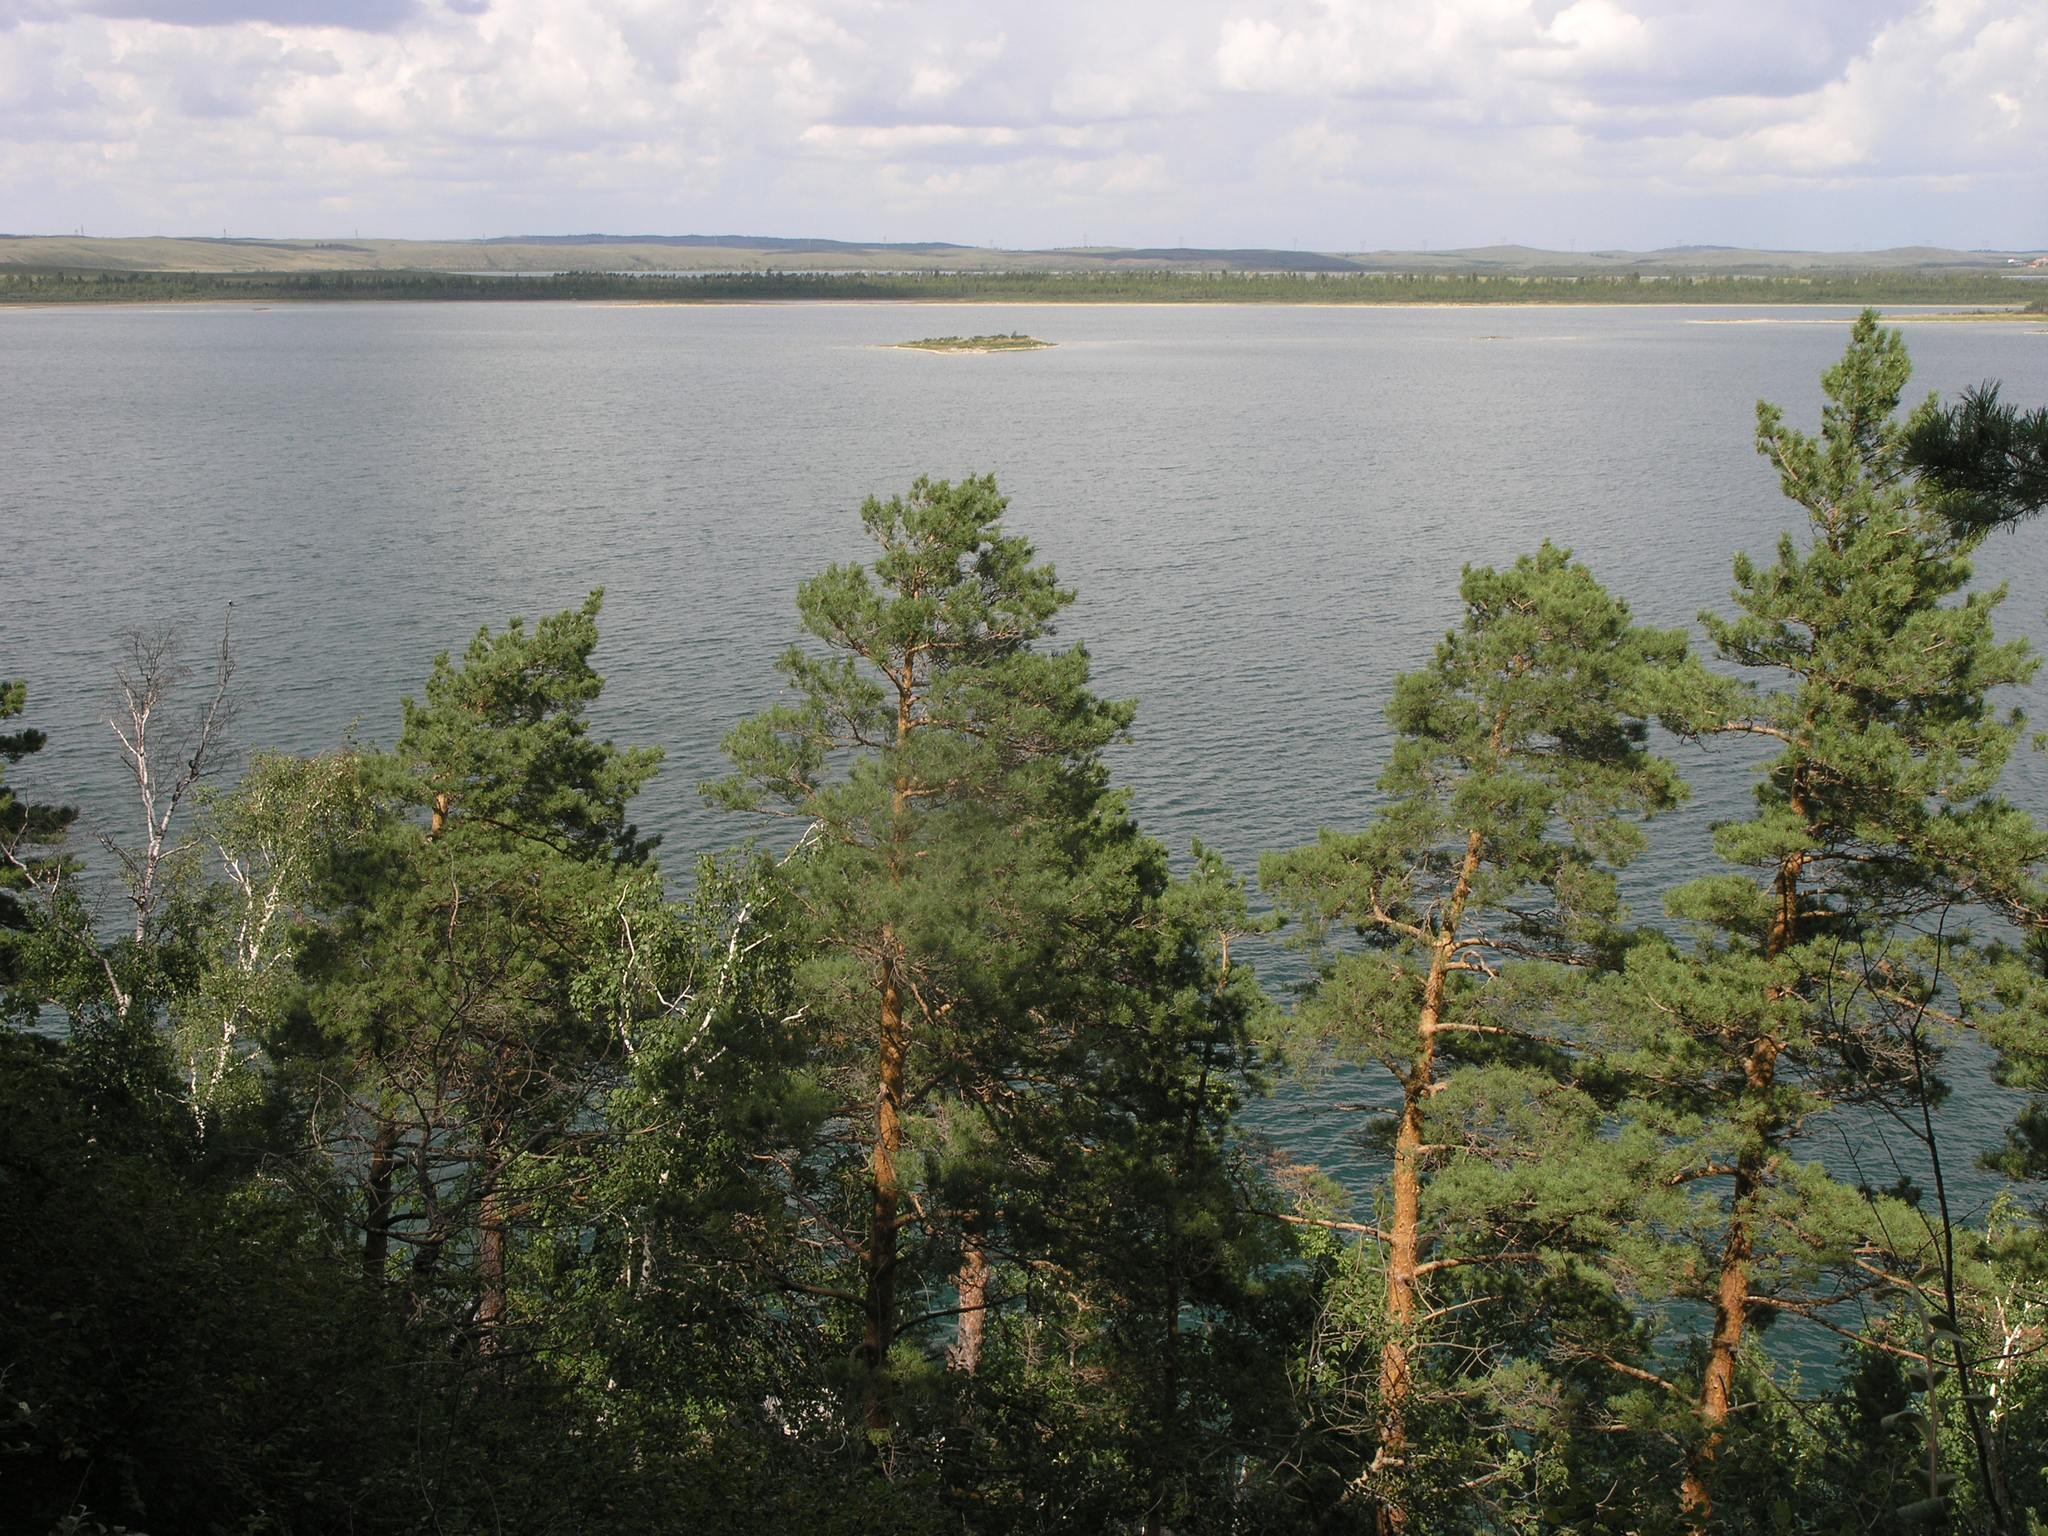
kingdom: Plantae
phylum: Tracheophyta
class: Pinopsida
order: Pinales
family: Pinaceae
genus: Pinus
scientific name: Pinus sylvestris
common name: Scots pine
